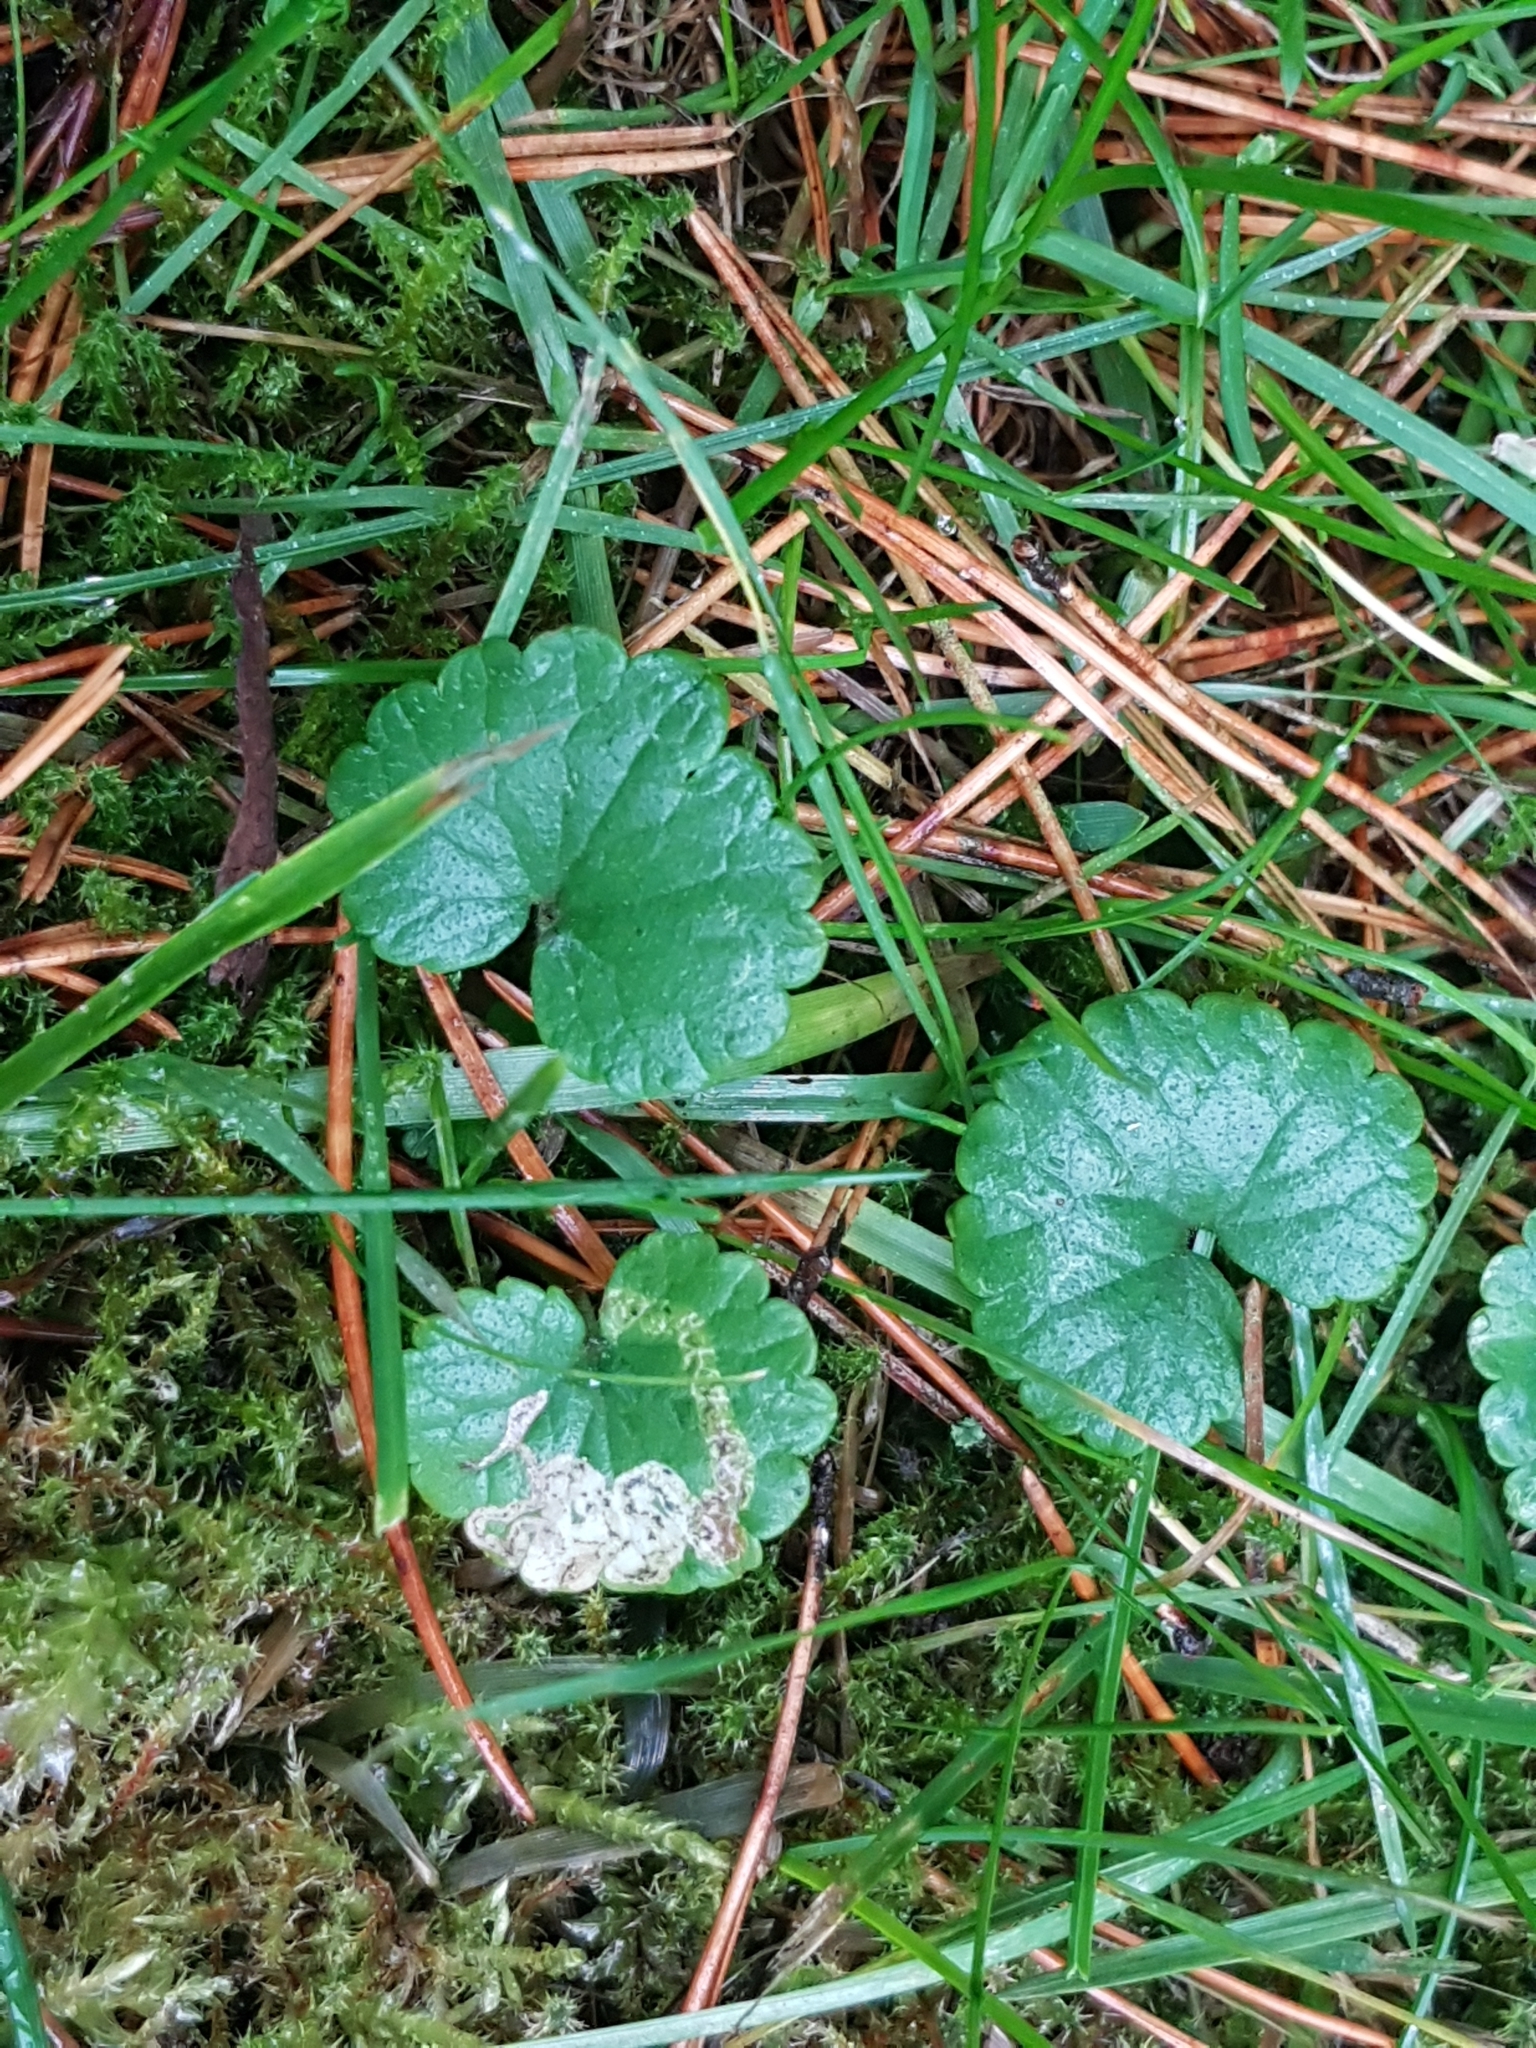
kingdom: Plantae
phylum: Tracheophyta
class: Magnoliopsida
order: Lamiales
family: Lamiaceae
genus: Glechoma
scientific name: Glechoma hederacea
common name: Ground ivy
